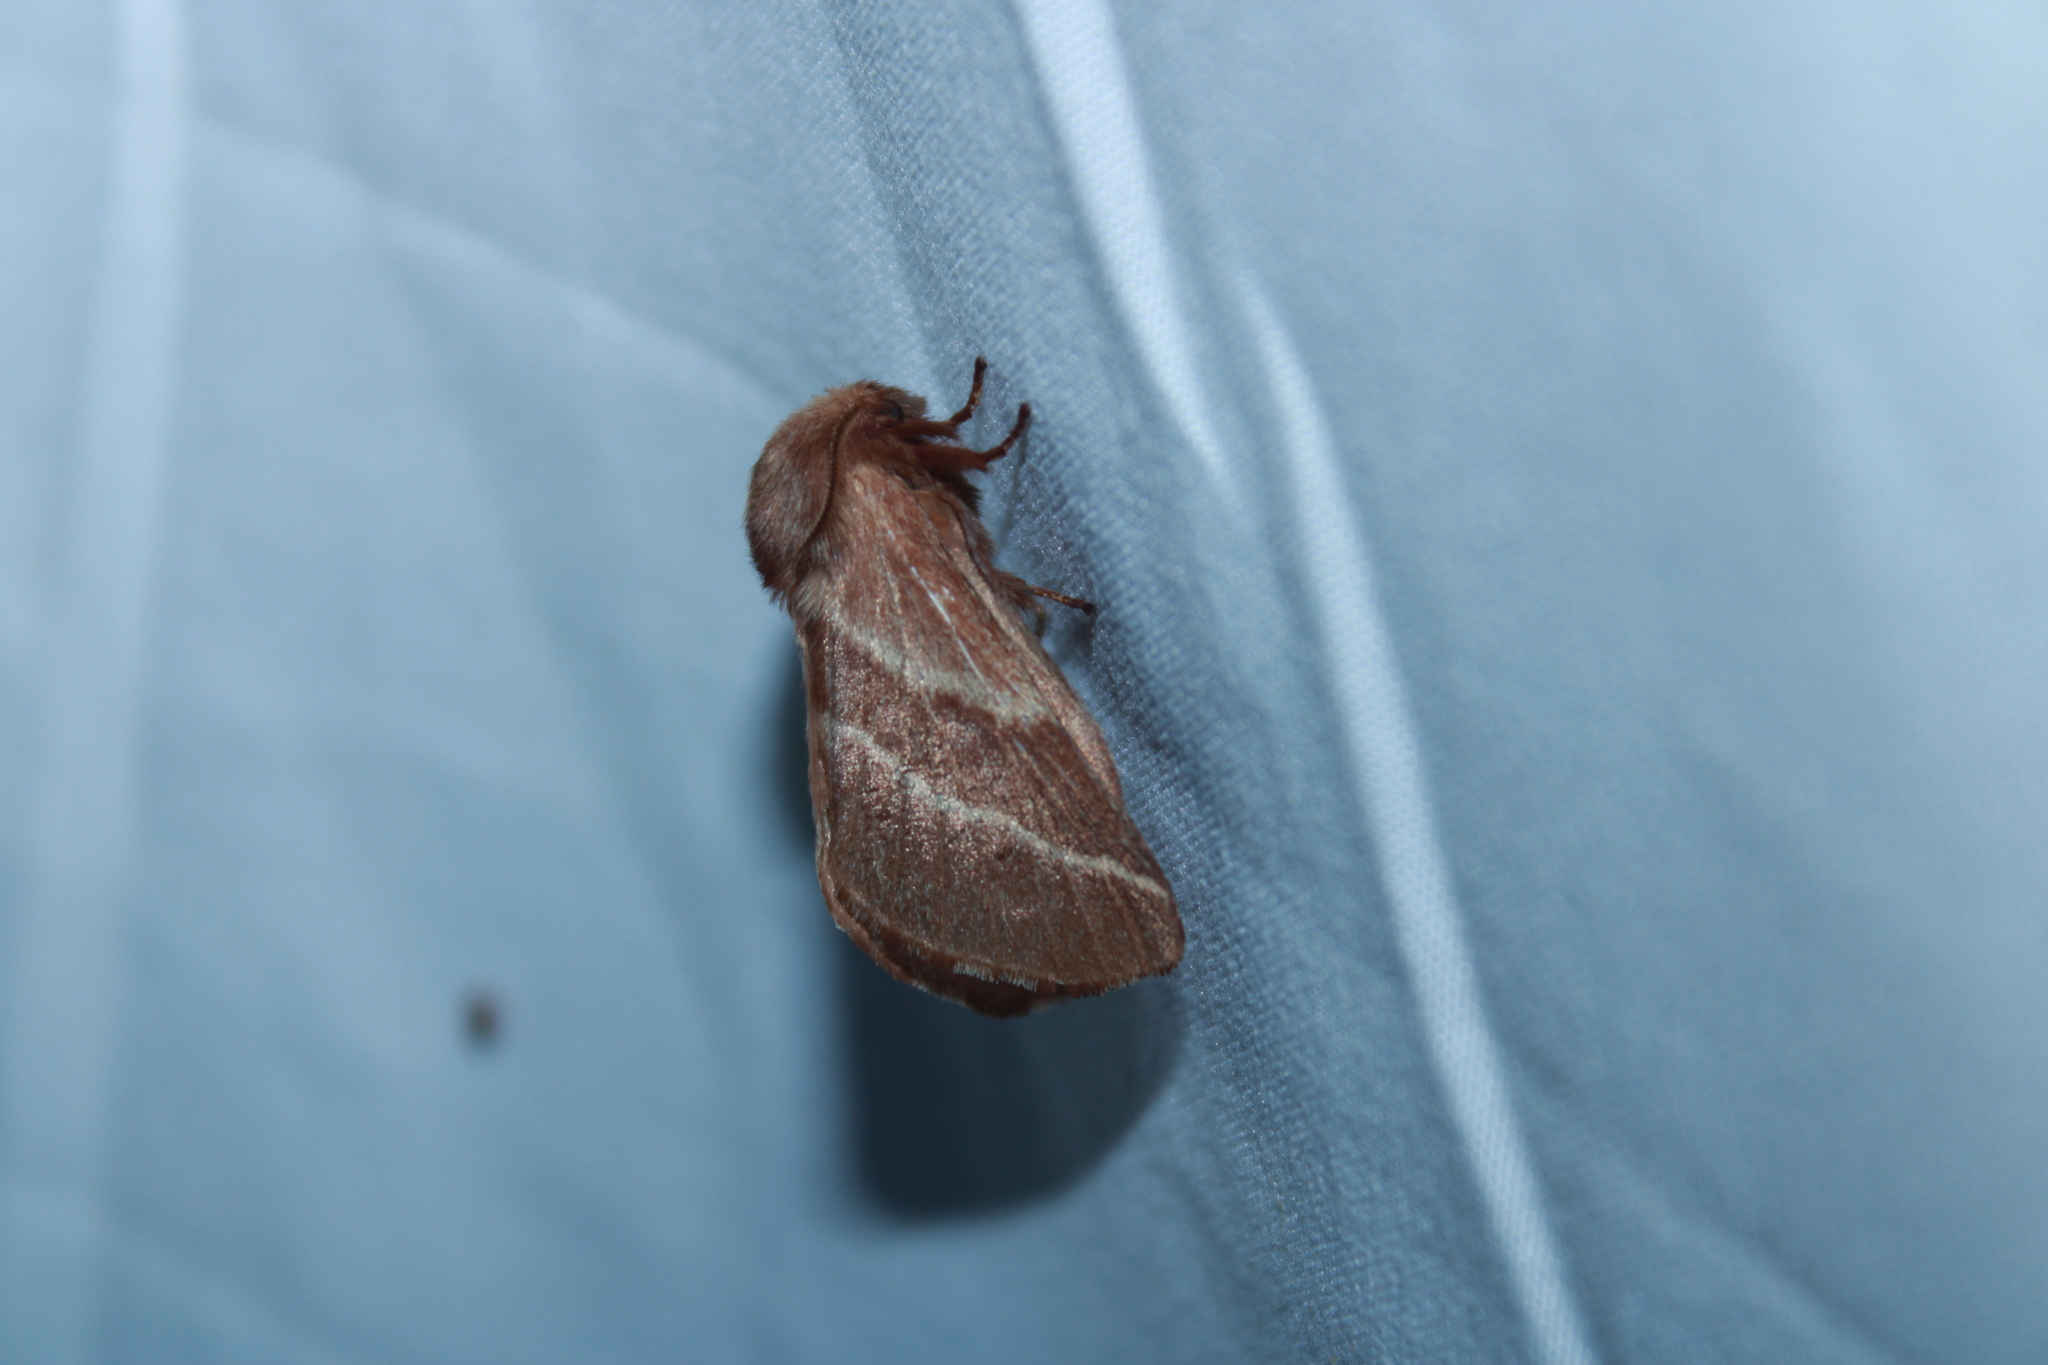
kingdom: Animalia
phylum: Arthropoda
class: Insecta
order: Lepidoptera
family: Lasiocampidae
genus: Malacosoma
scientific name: Malacosoma americana
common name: Eastern tent caterpillar moth
